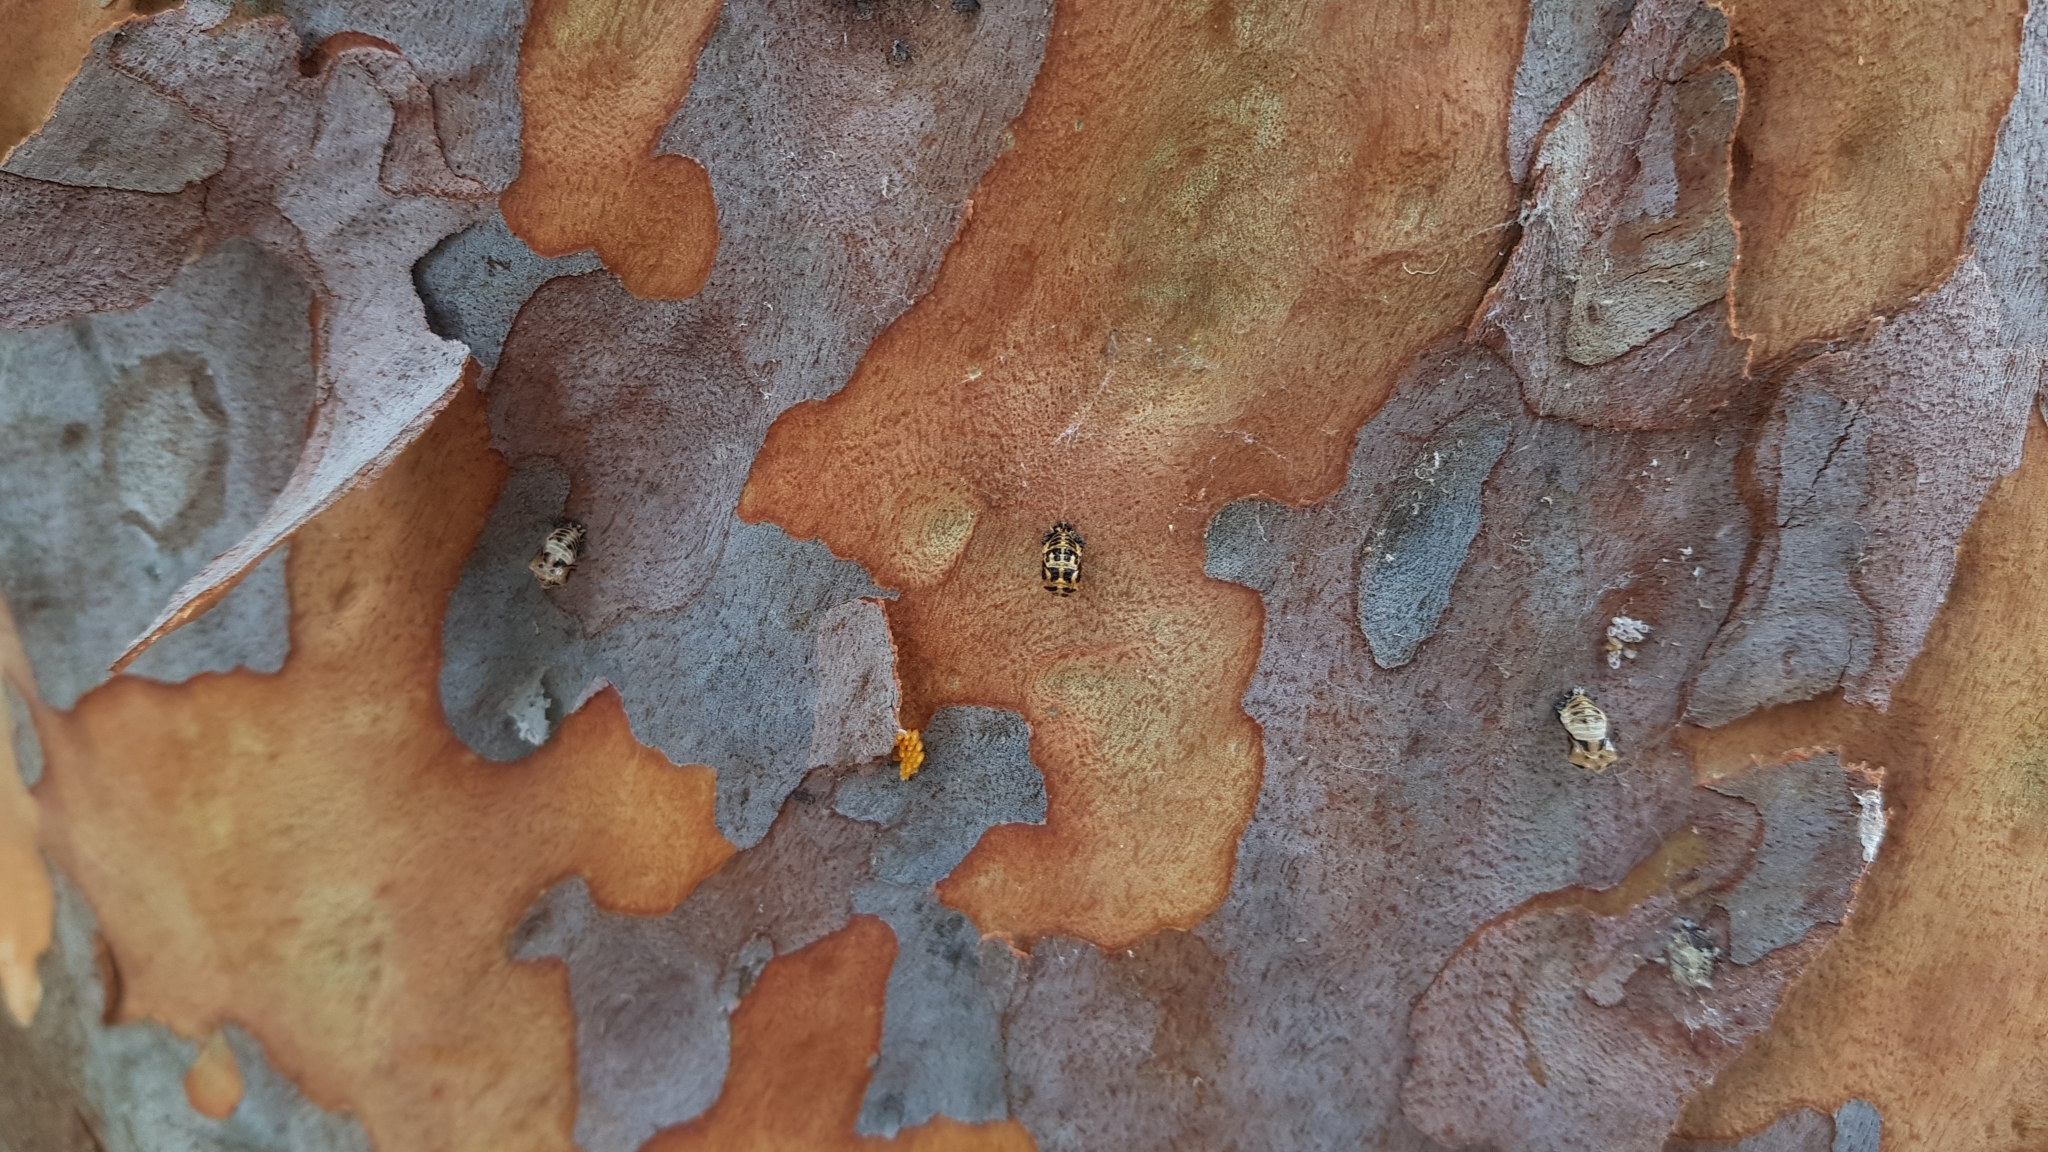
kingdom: Animalia
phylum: Arthropoda
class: Insecta
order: Coleoptera
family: Coccinellidae
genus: Harmonia
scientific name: Harmonia conformis
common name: Common spotted ladybird beetle
